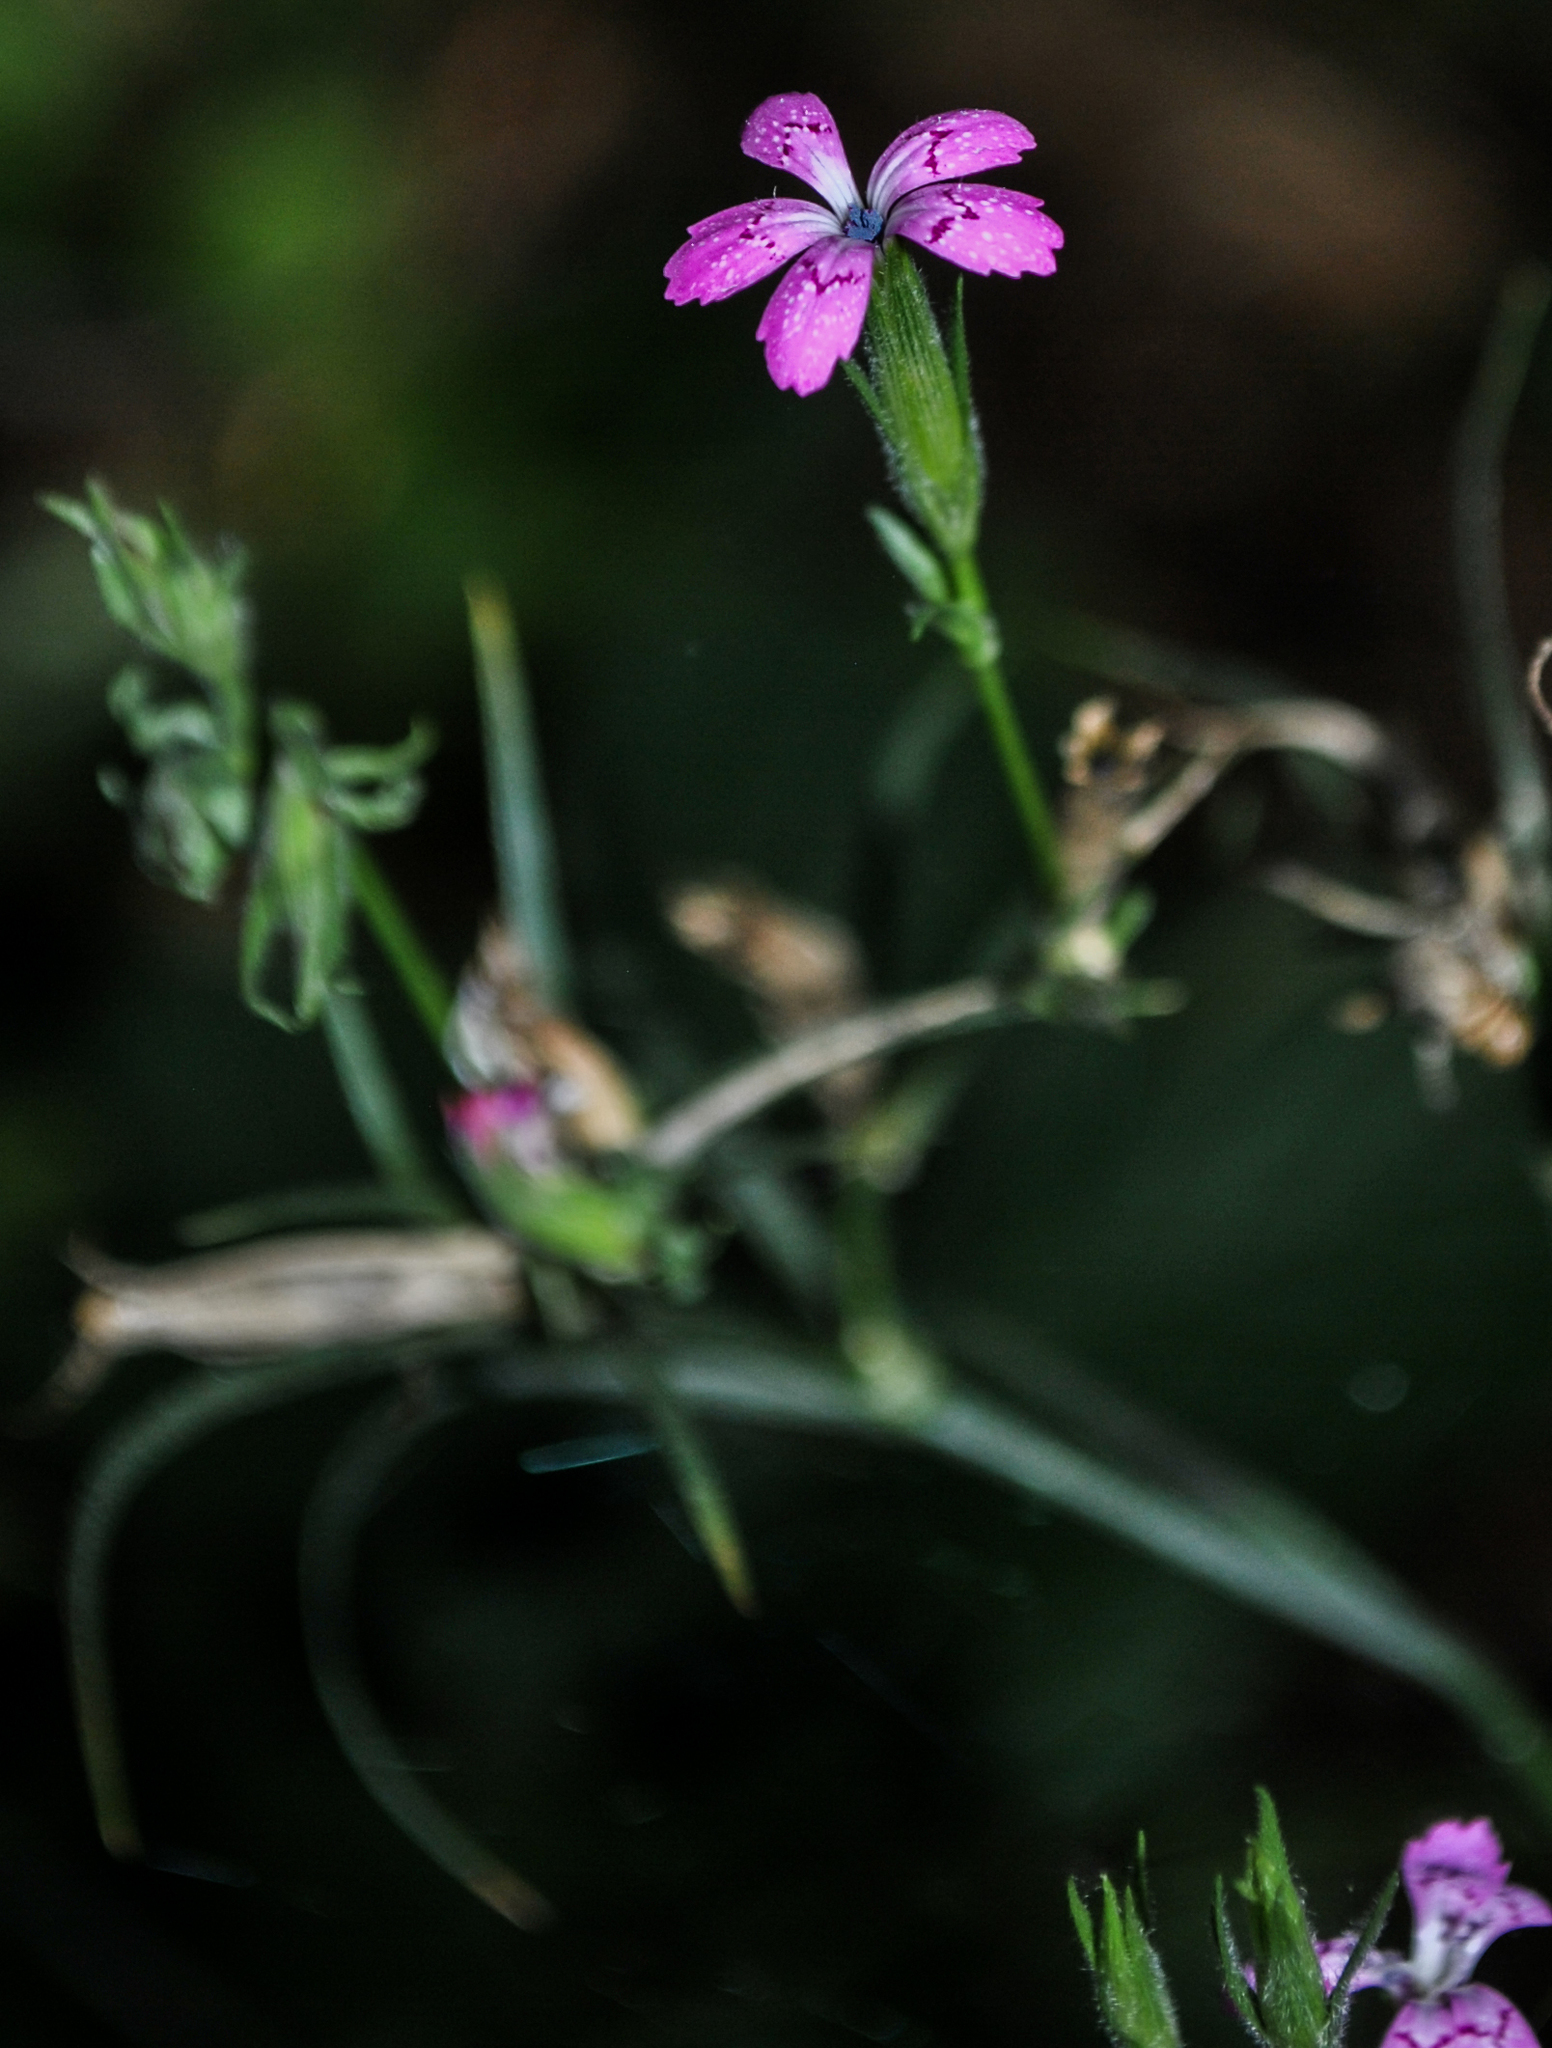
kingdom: Plantae
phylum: Tracheophyta
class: Magnoliopsida
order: Caryophyllales
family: Caryophyllaceae
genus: Dianthus
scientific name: Dianthus armeria
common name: Deptford pink
